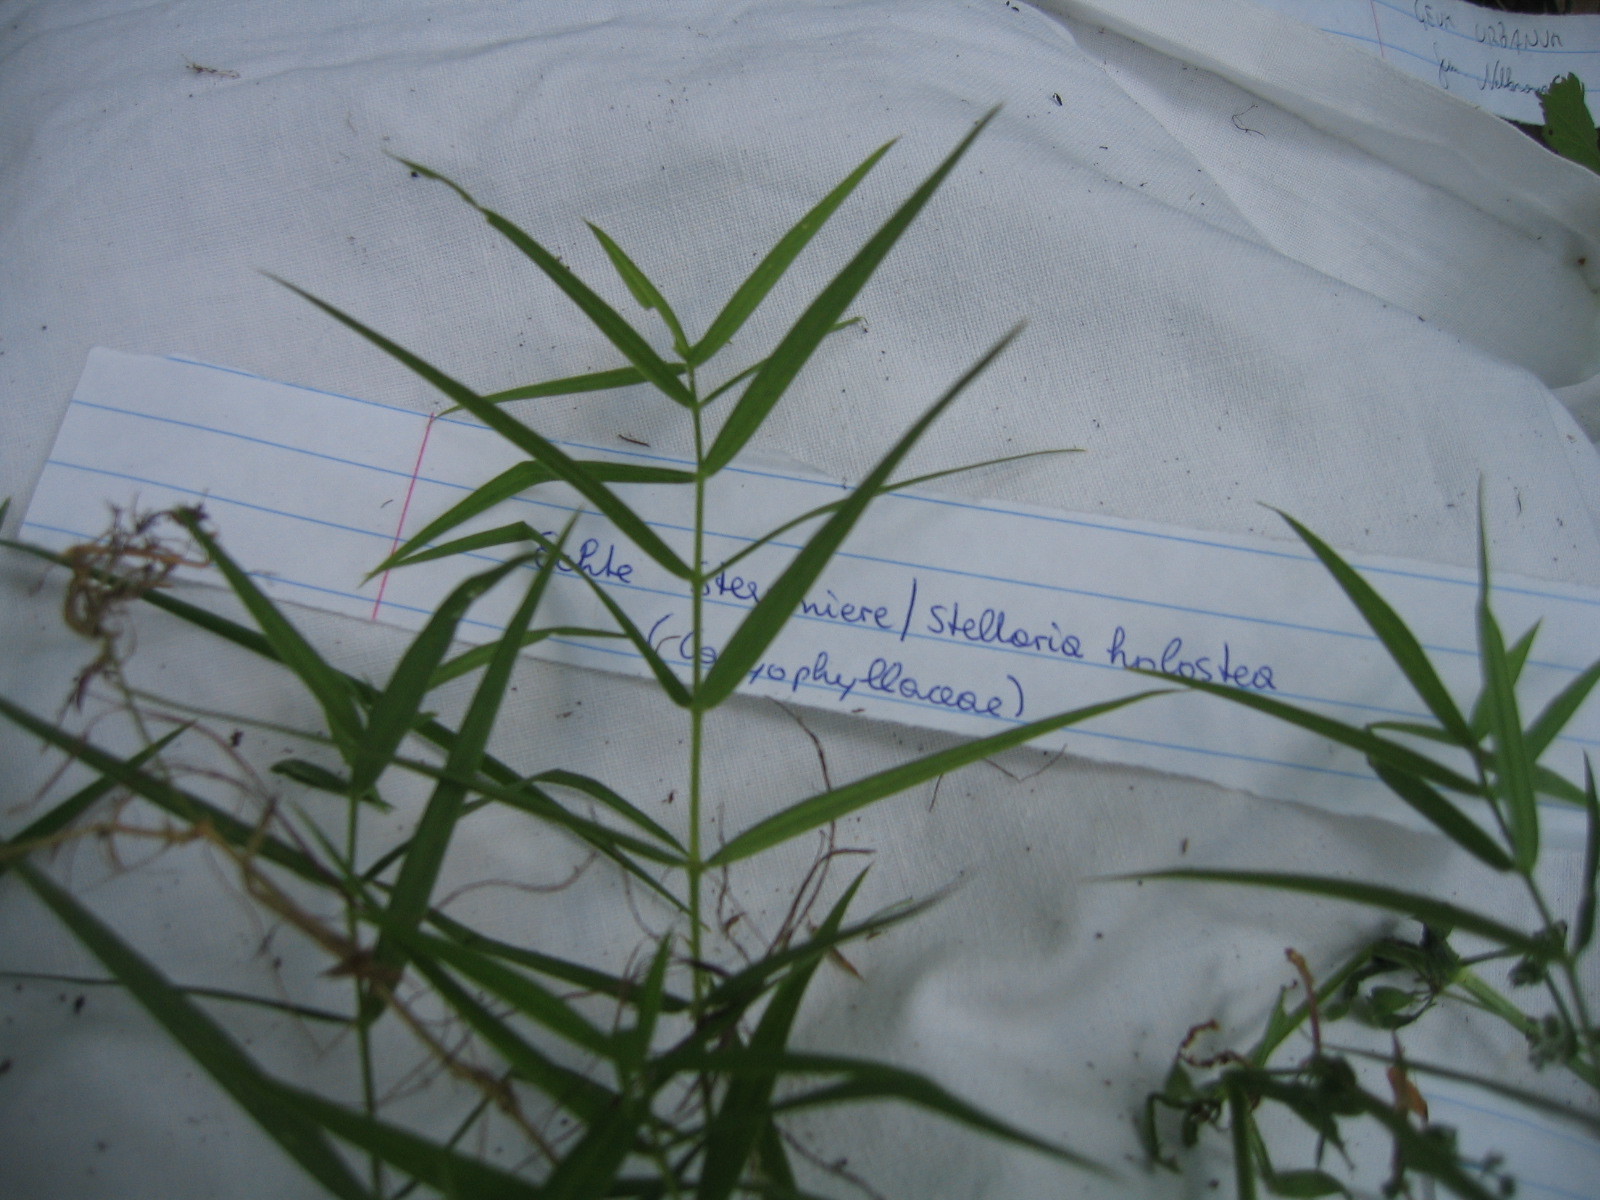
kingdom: Plantae
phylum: Tracheophyta
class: Magnoliopsida
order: Caryophyllales
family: Caryophyllaceae
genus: Rabelera
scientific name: Rabelera holostea
